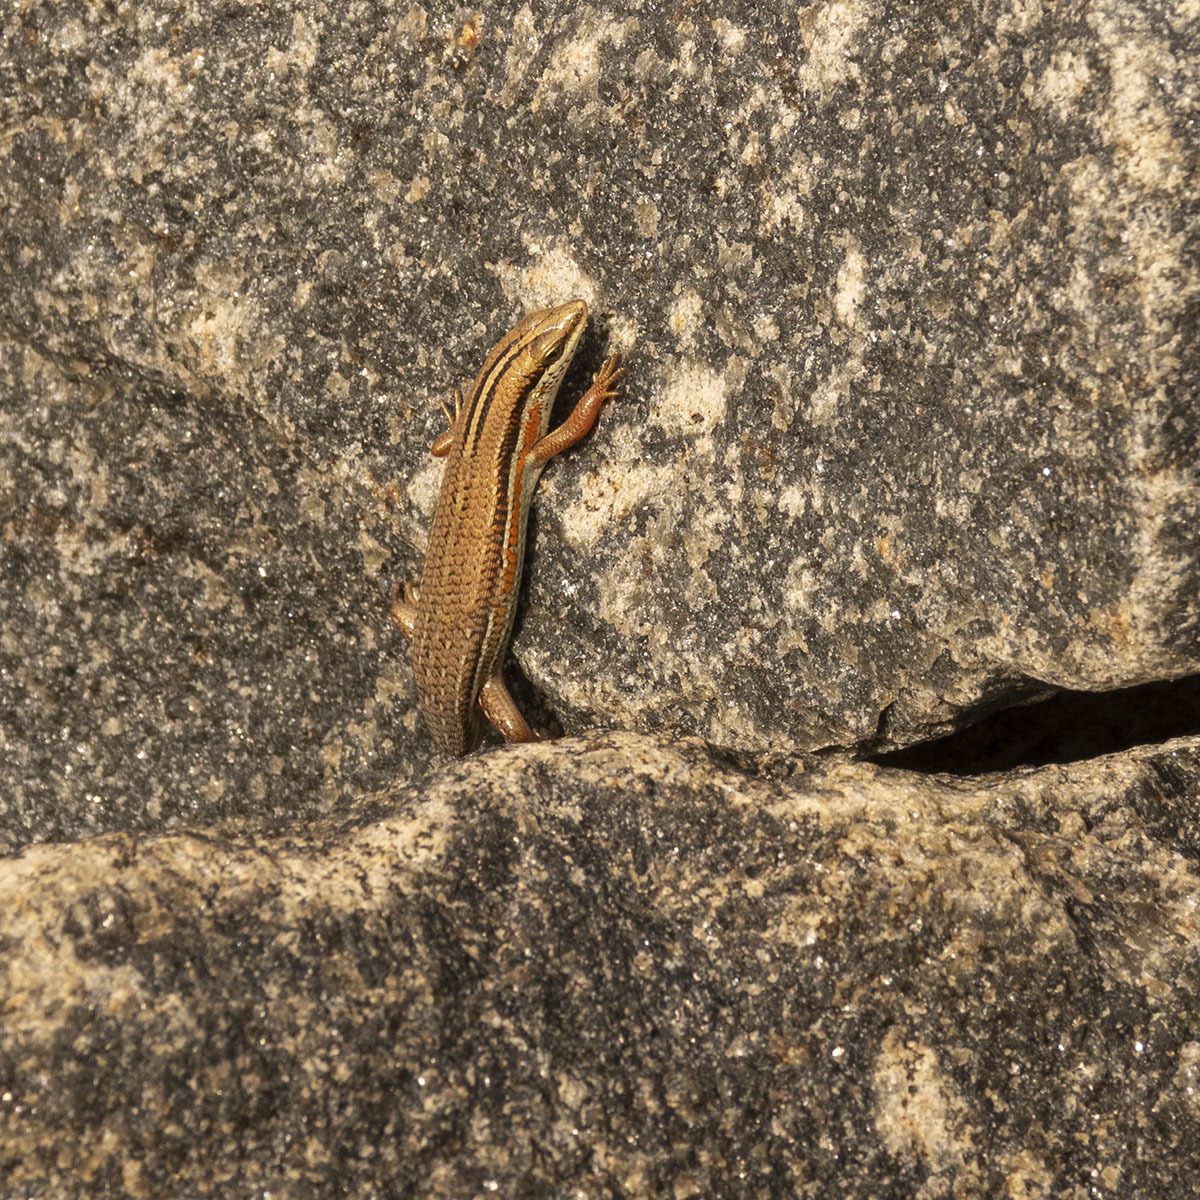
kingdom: Animalia
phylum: Chordata
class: Squamata
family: Scincidae
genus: Eutropis
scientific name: Eutropis bibronii
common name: Bibron's skink
